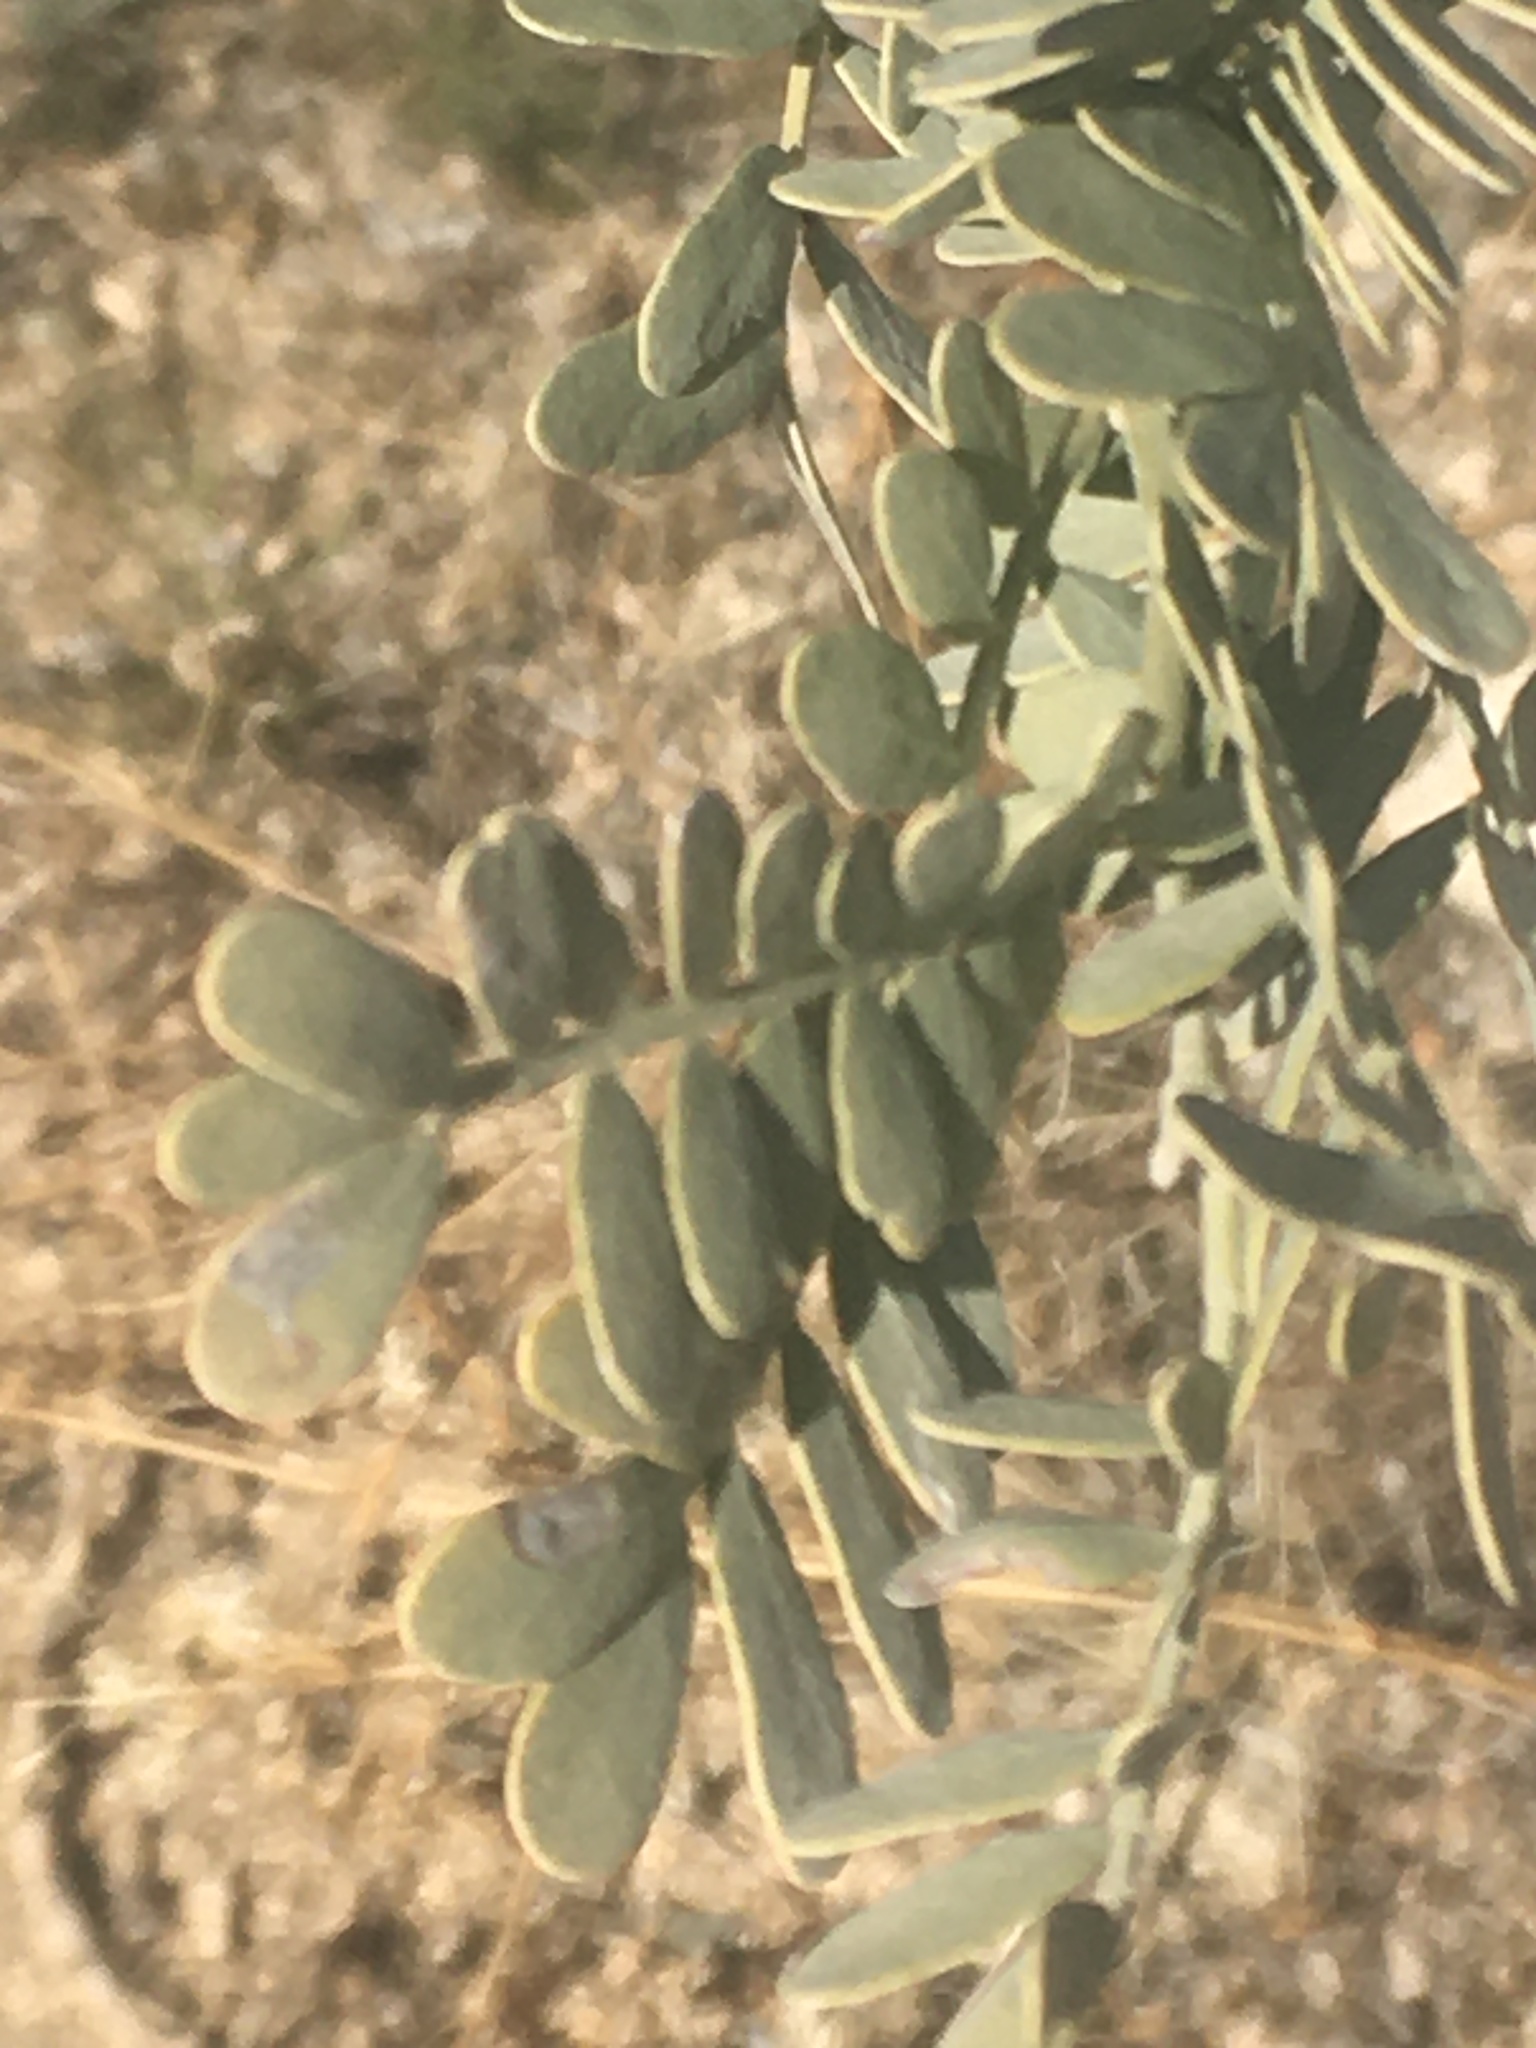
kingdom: Plantae
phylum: Tracheophyta
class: Magnoliopsida
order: Fabales
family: Fabaceae
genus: Olneya
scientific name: Olneya tesota
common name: Desert ironwood
